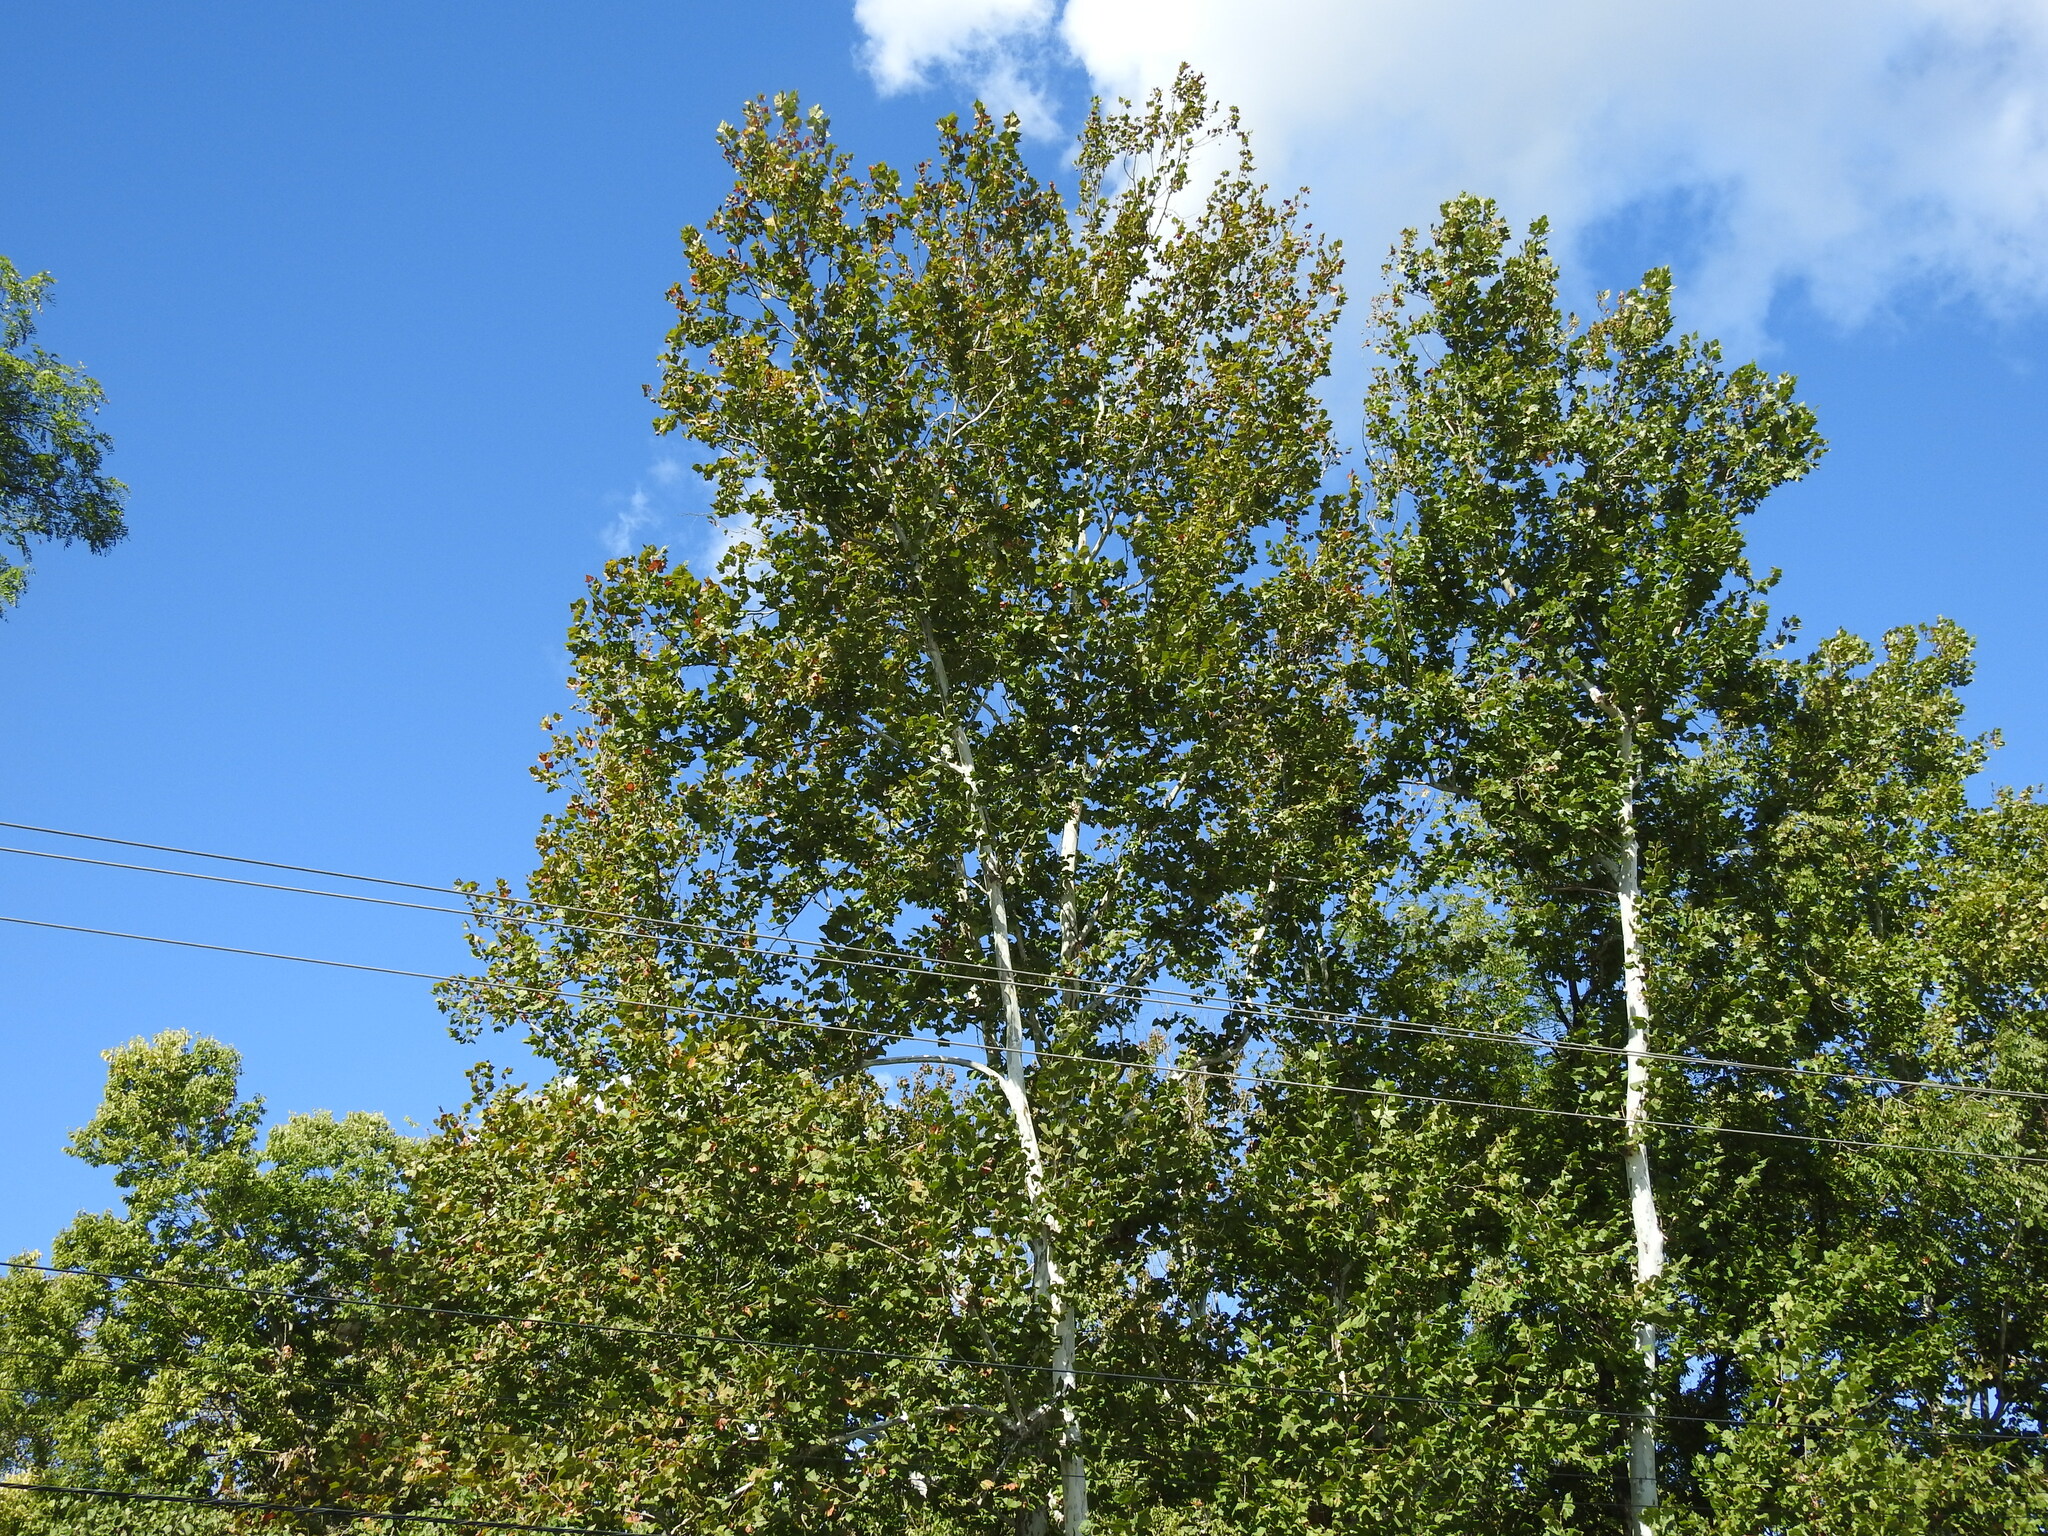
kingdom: Plantae
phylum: Tracheophyta
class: Magnoliopsida
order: Proteales
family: Platanaceae
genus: Platanus
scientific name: Platanus occidentalis
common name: American sycamore
